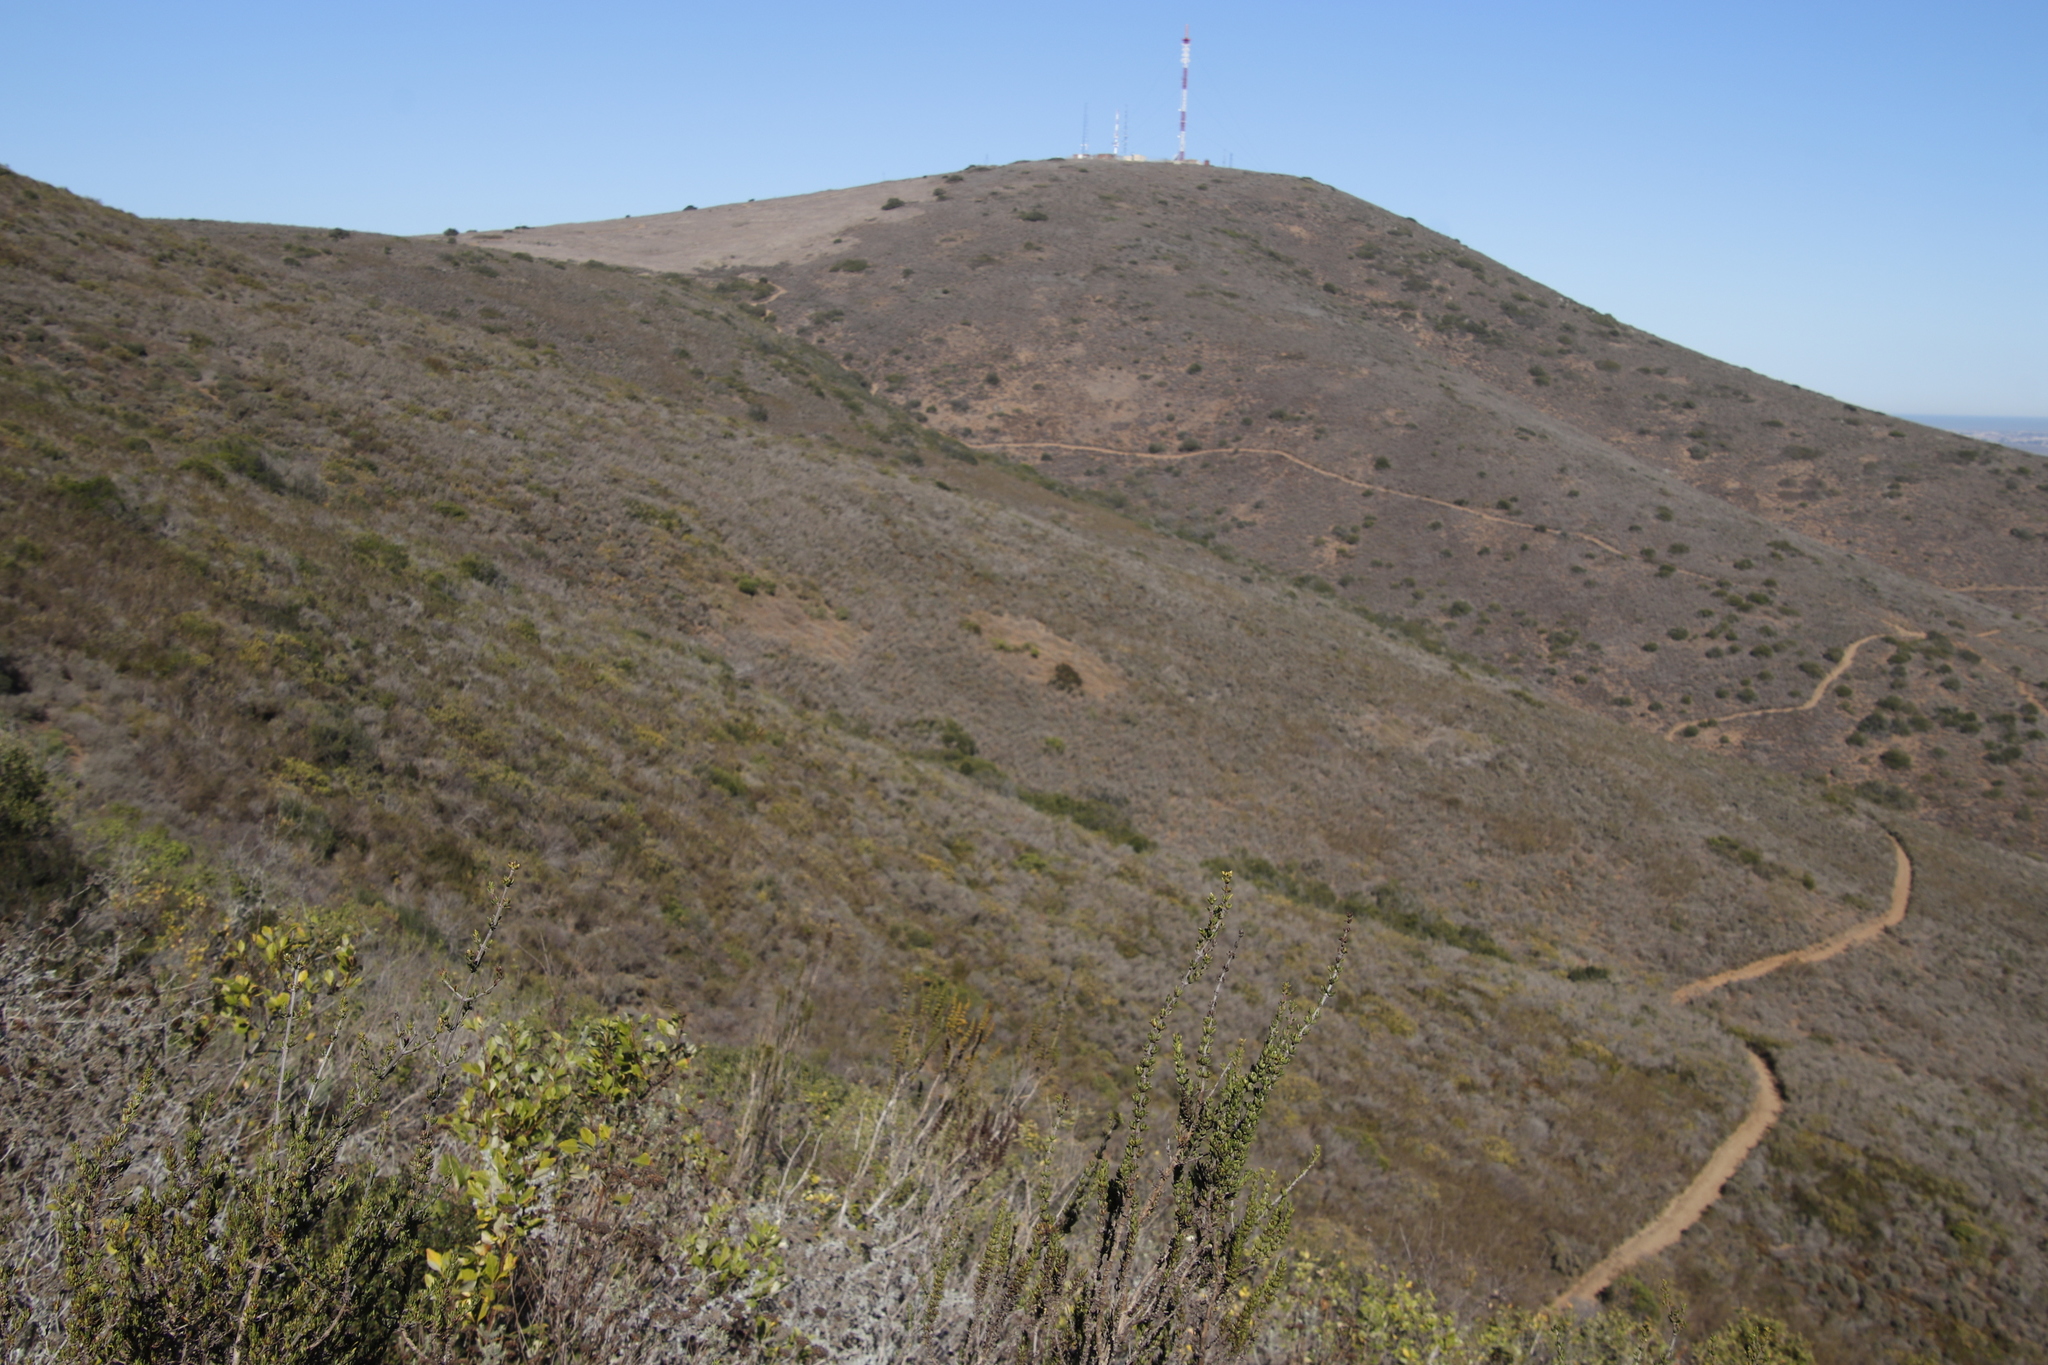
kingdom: Animalia
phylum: Arthropoda
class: Insecta
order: Blattodea
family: Hodotermitidae
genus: Microhodotermes
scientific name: Microhodotermes viator
